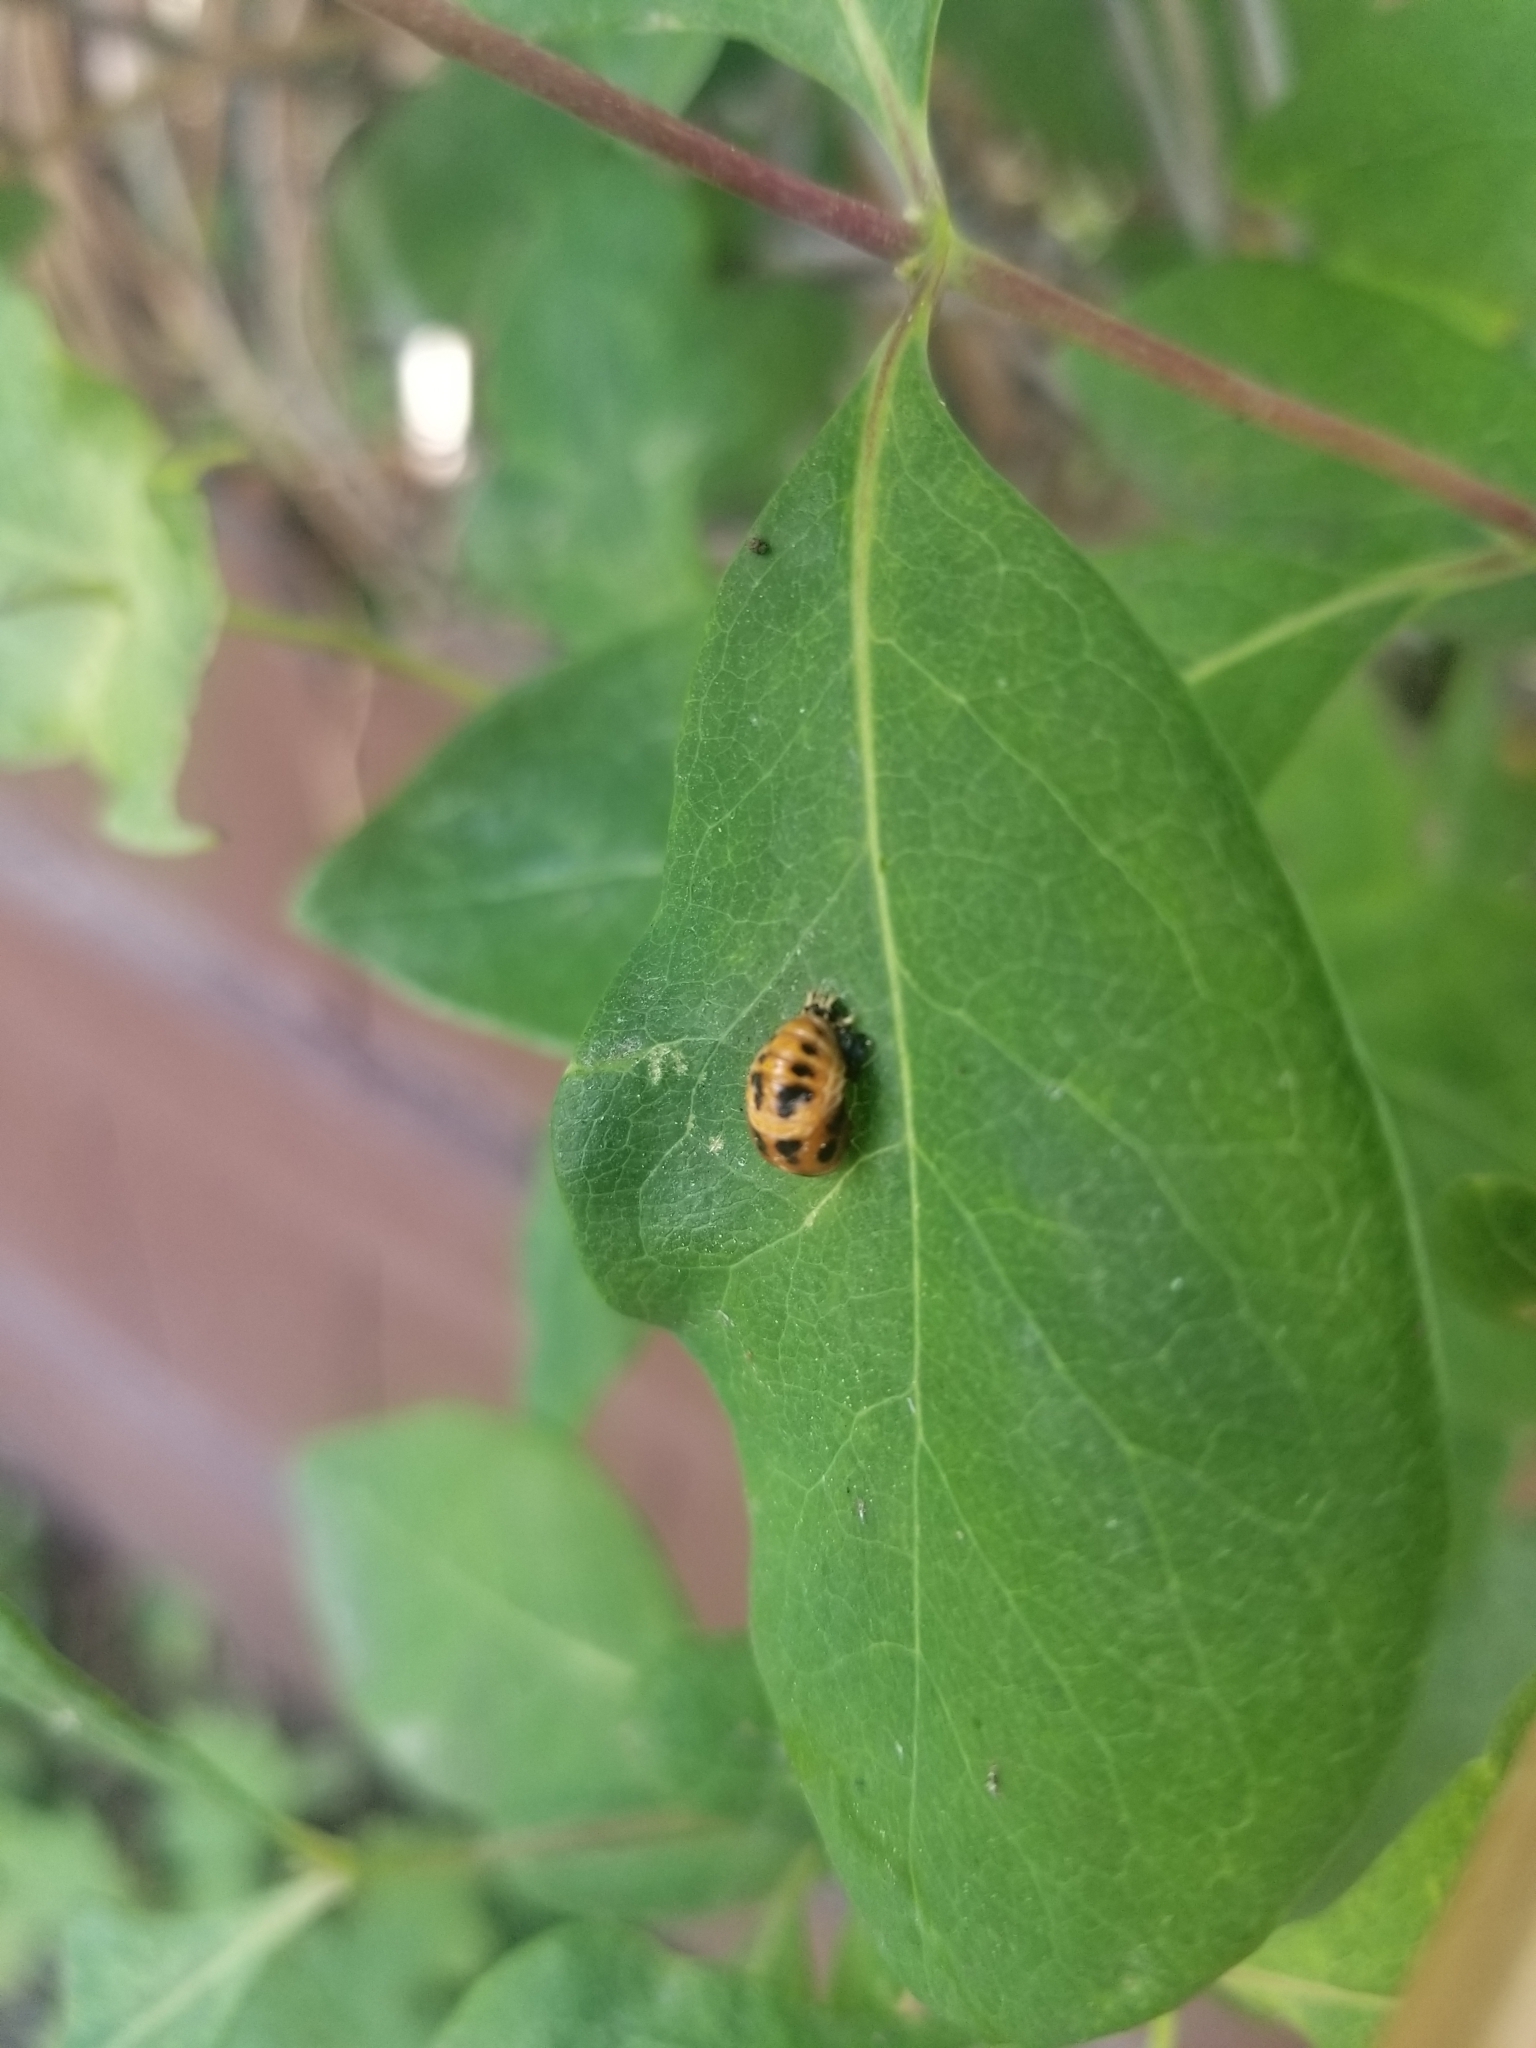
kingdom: Animalia
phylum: Arthropoda
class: Insecta
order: Coleoptera
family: Coccinellidae
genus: Harmonia
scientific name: Harmonia axyridis
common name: Harlequin ladybird
